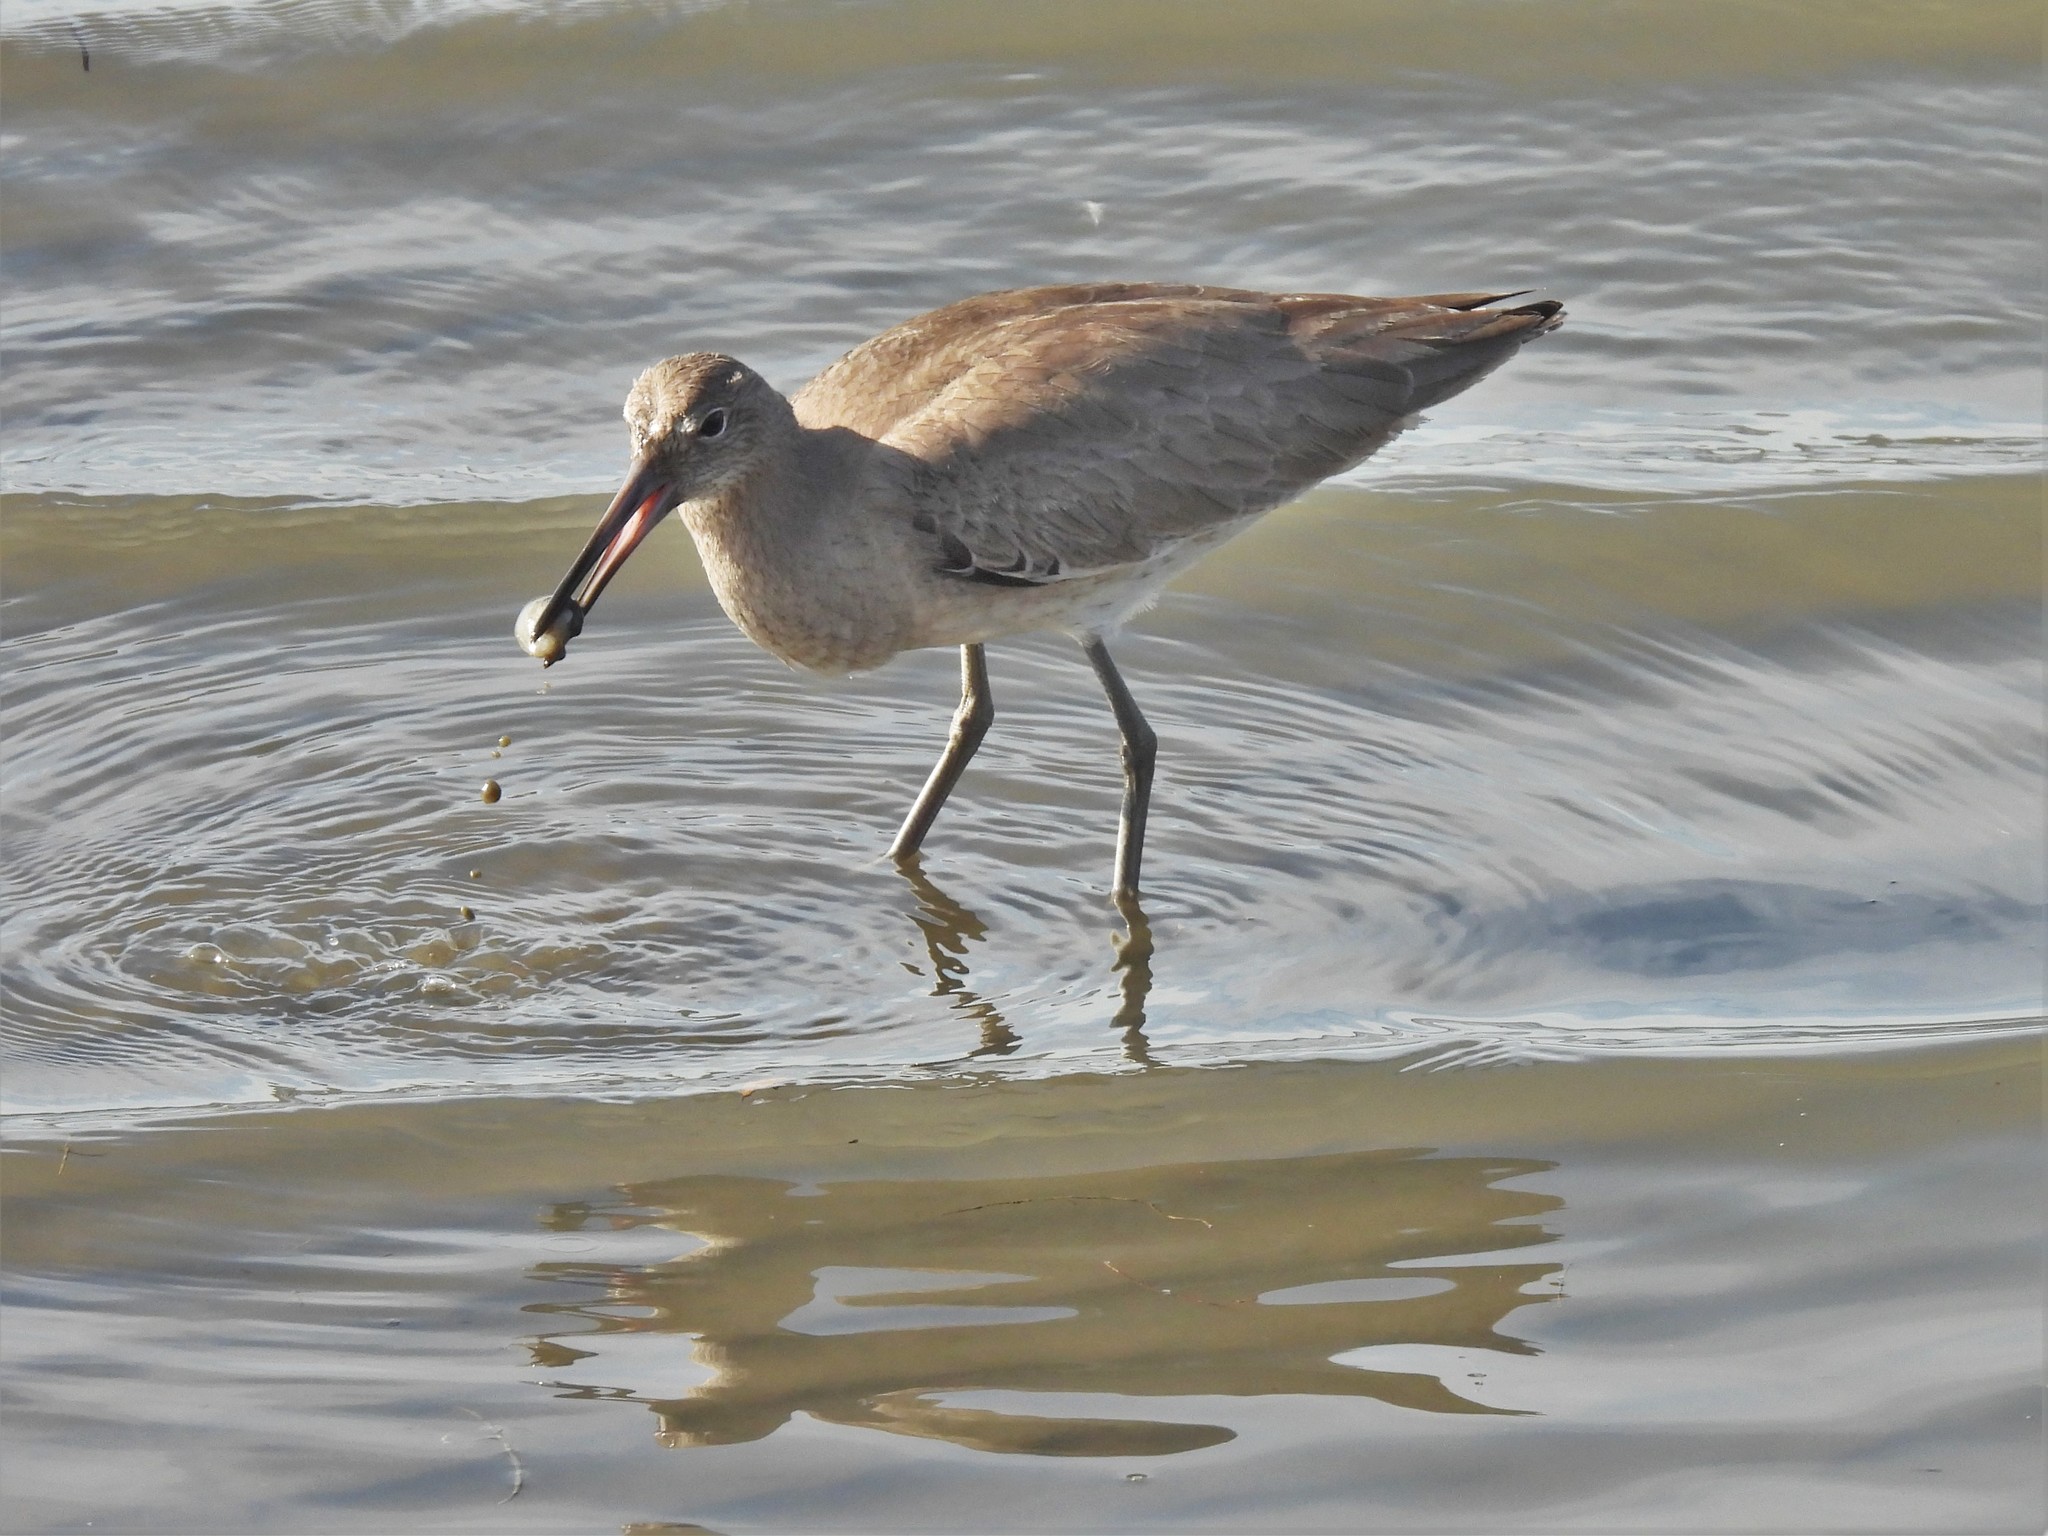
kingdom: Animalia
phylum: Chordata
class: Aves
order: Charadriiformes
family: Scolopacidae
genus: Tringa
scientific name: Tringa semipalmata
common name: Willet
